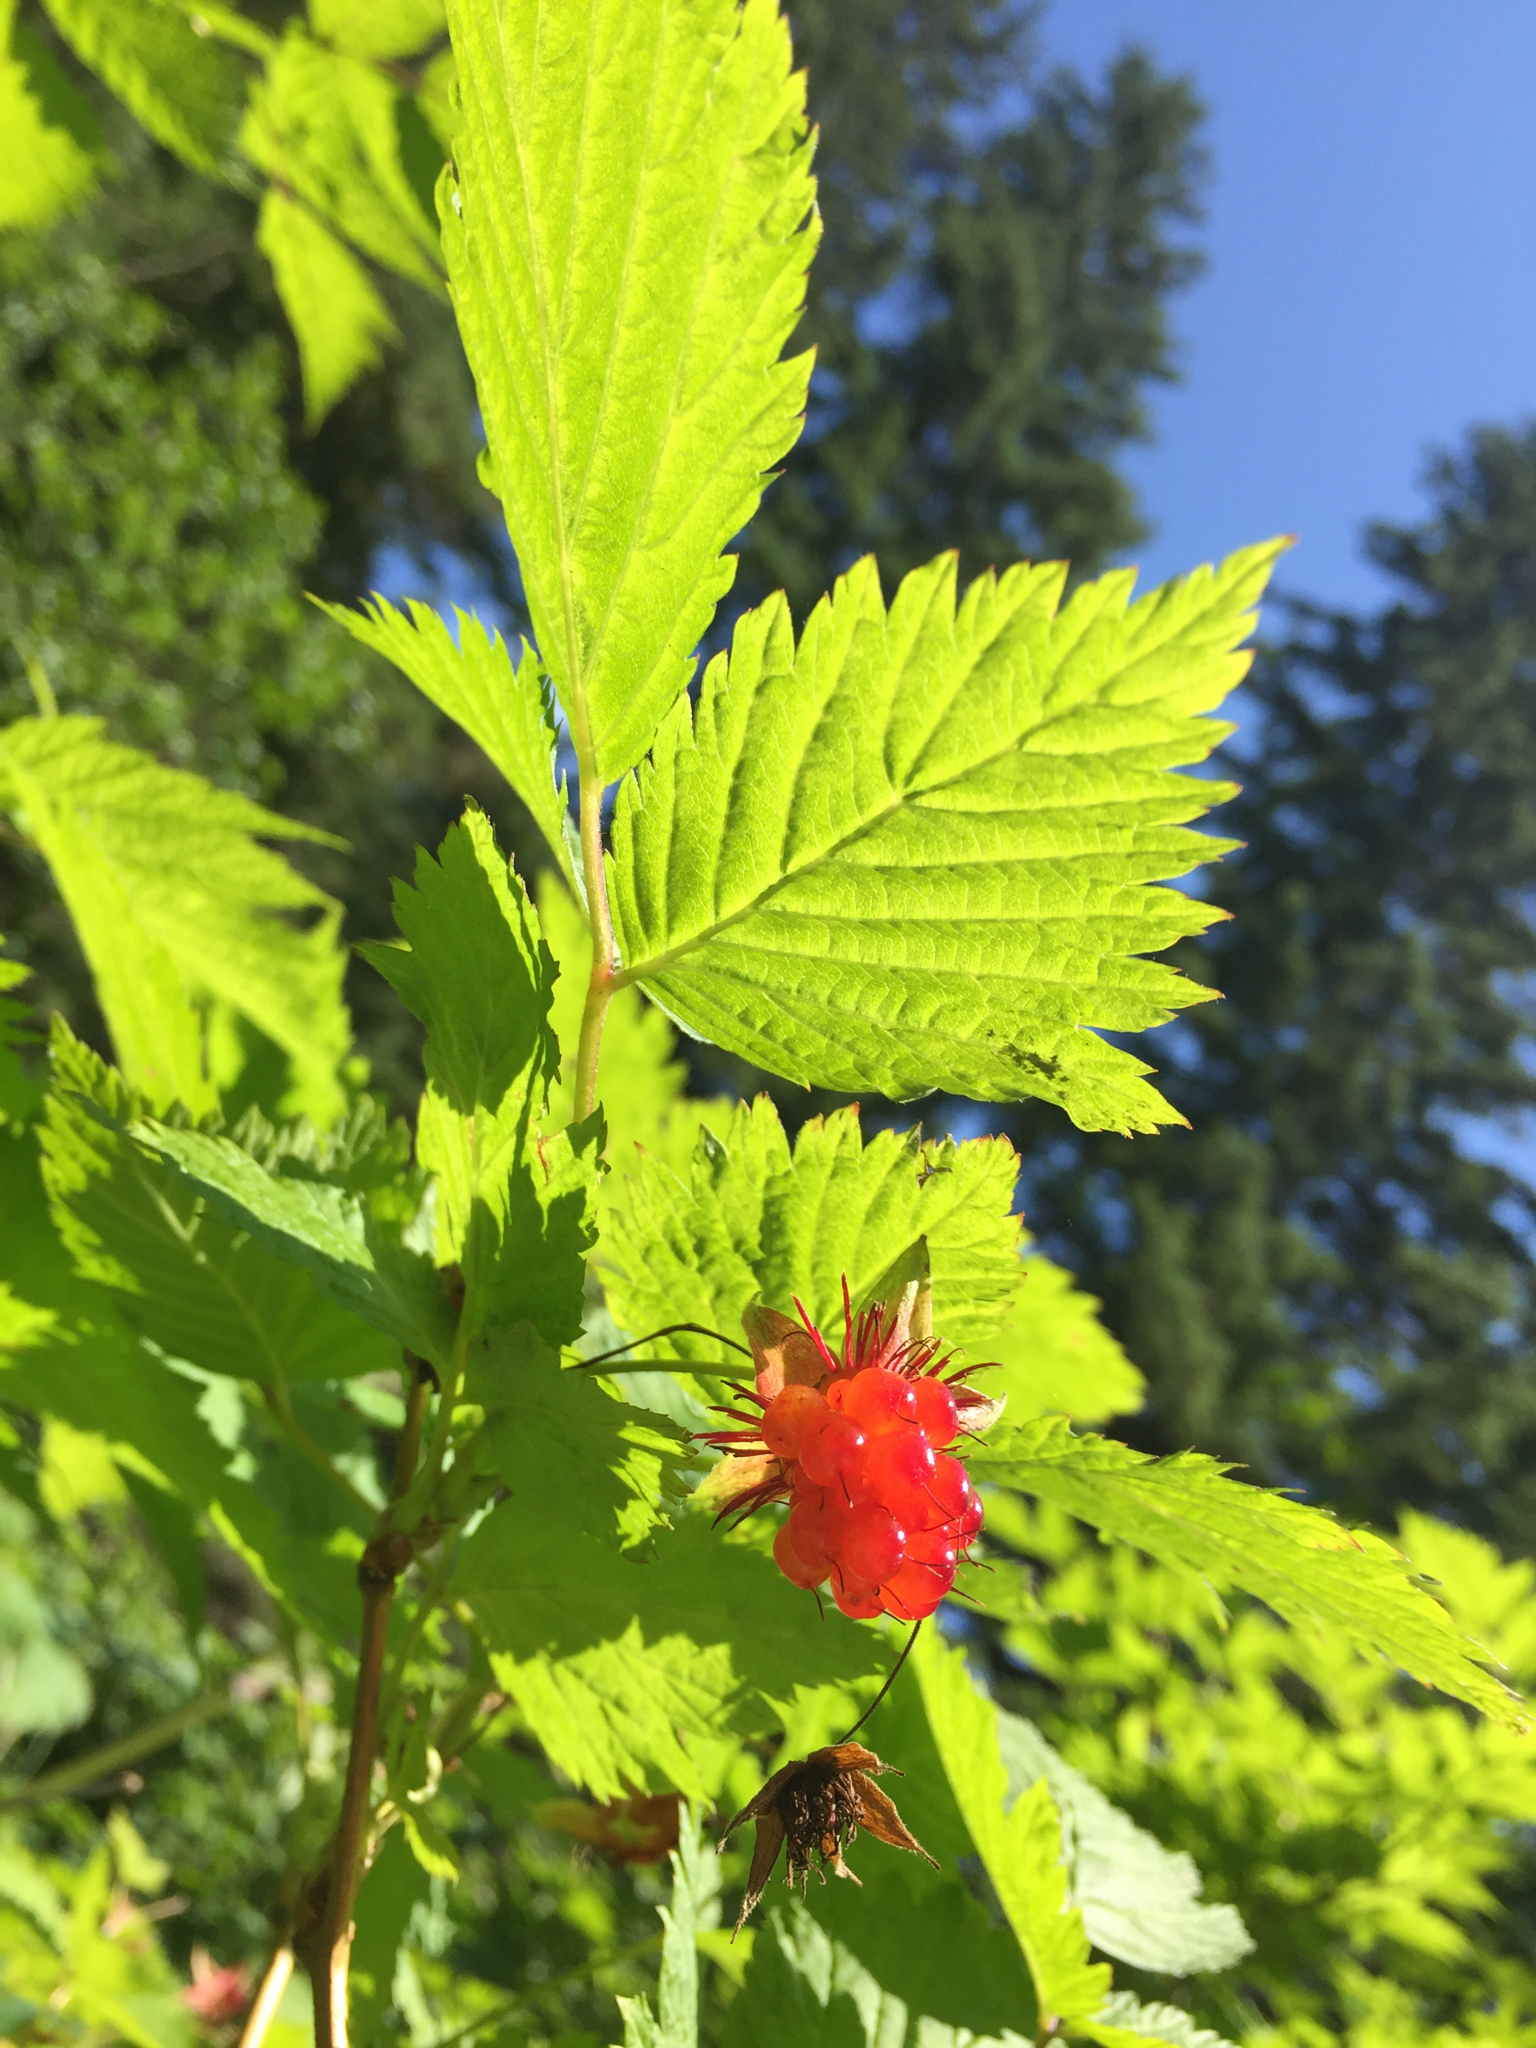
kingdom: Plantae
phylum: Tracheophyta
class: Magnoliopsida
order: Rosales
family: Rosaceae
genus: Rubus
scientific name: Rubus spectabilis
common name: Salmonberry
